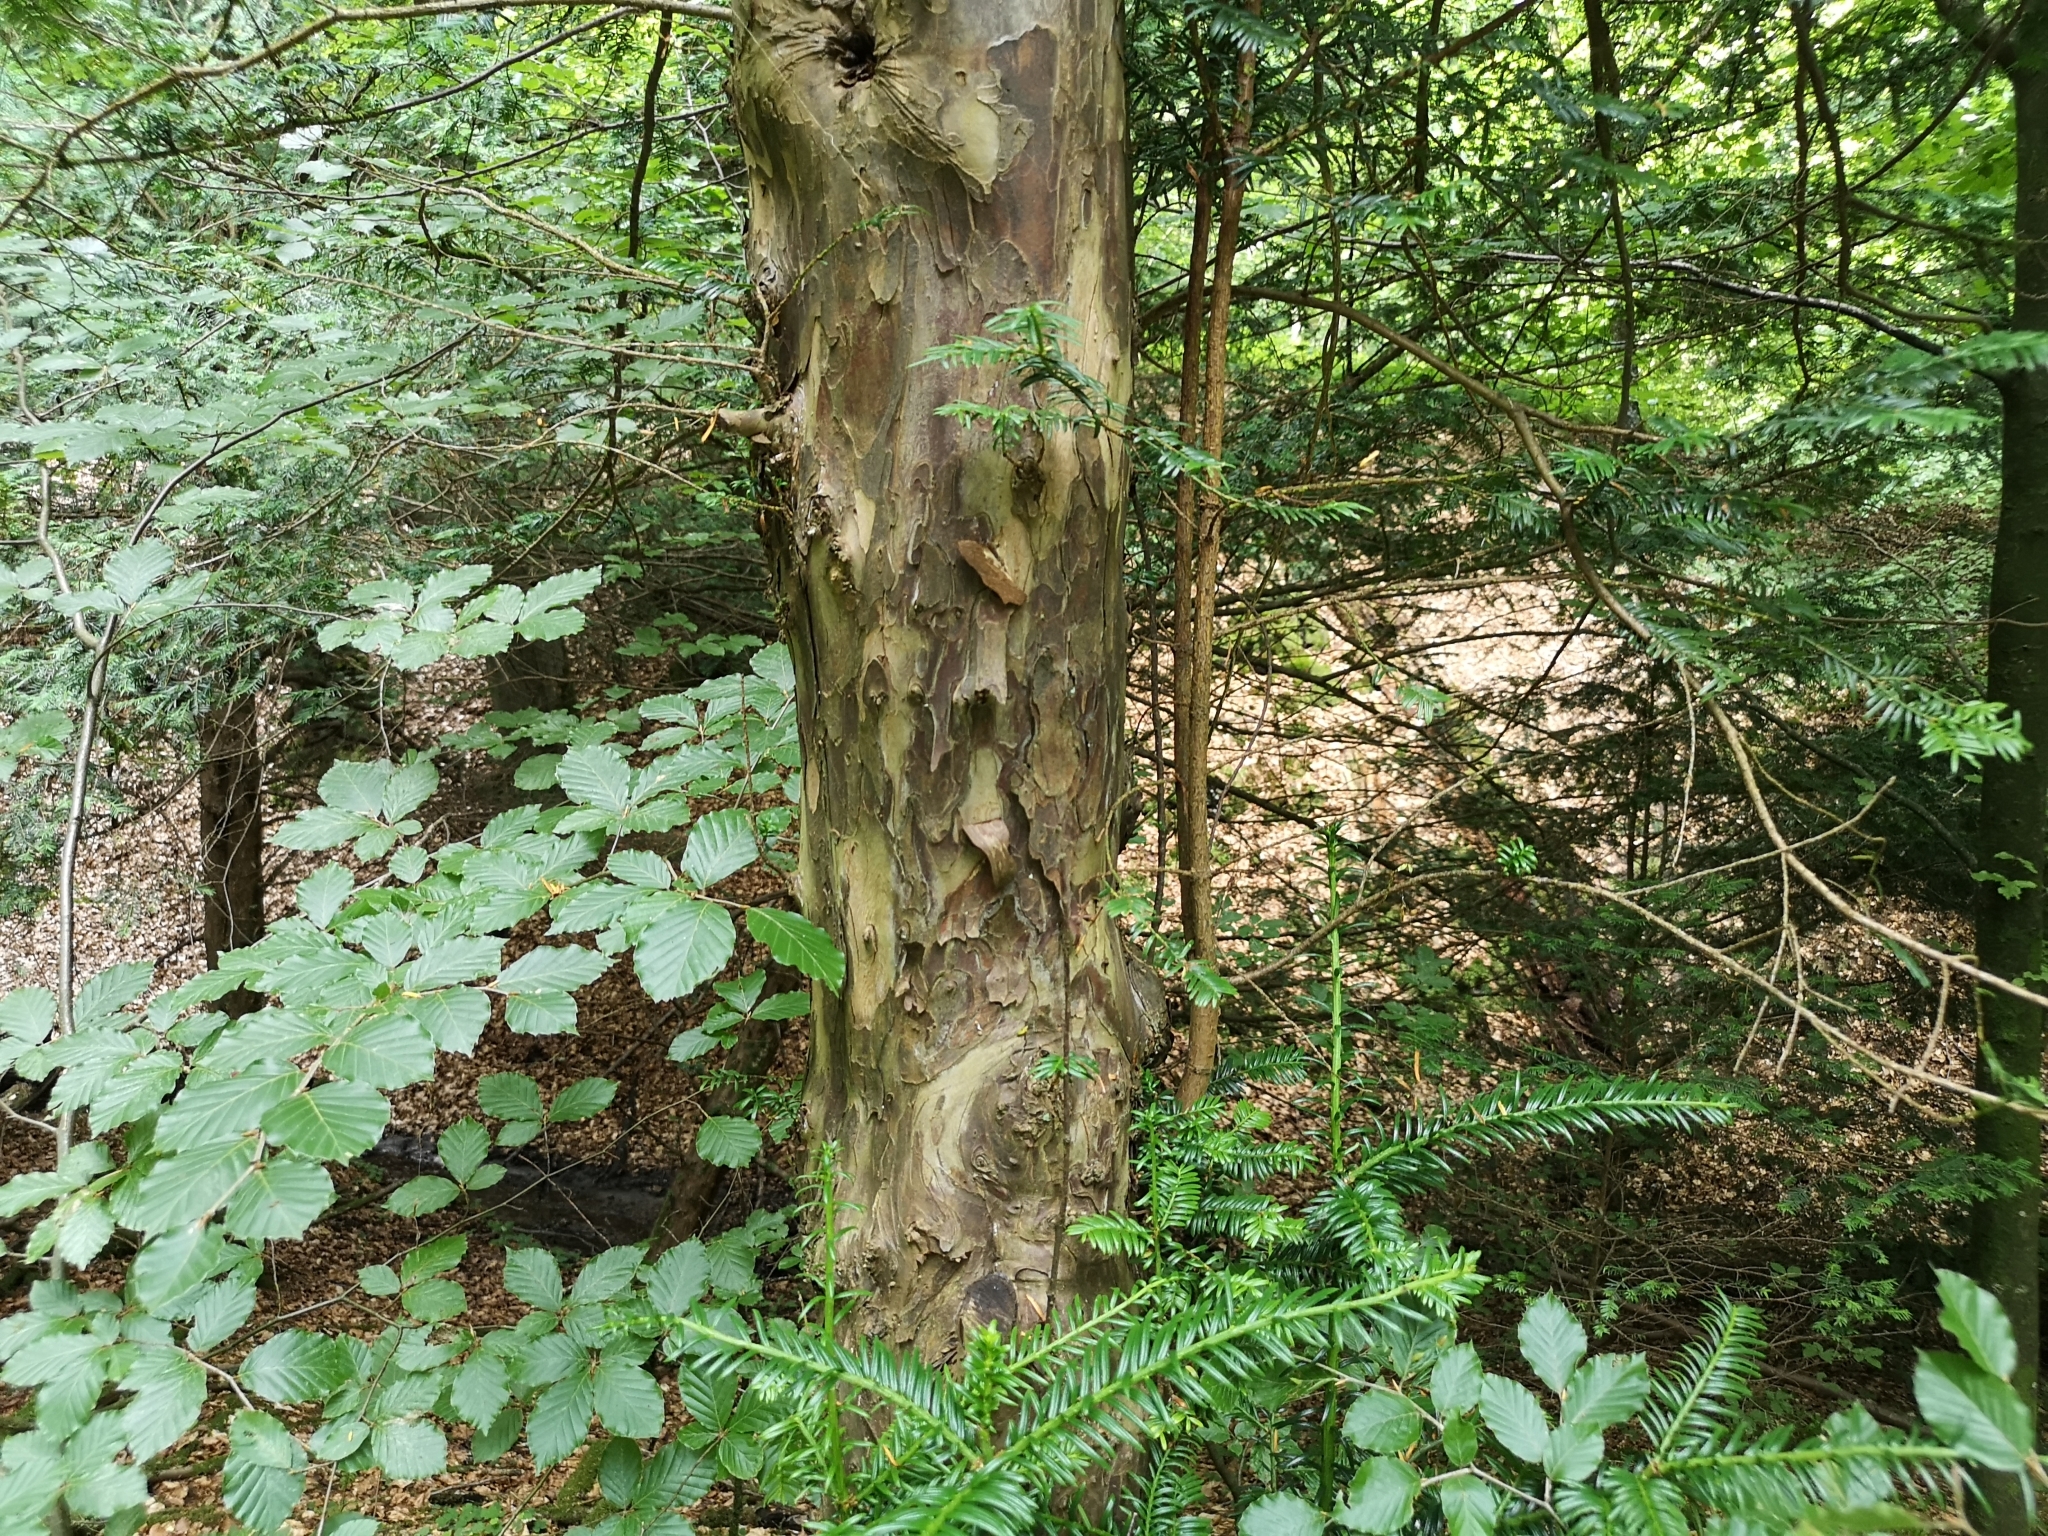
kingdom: Plantae
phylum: Tracheophyta
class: Pinopsida
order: Pinales
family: Taxaceae
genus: Taxus
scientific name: Taxus baccata
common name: Yew
